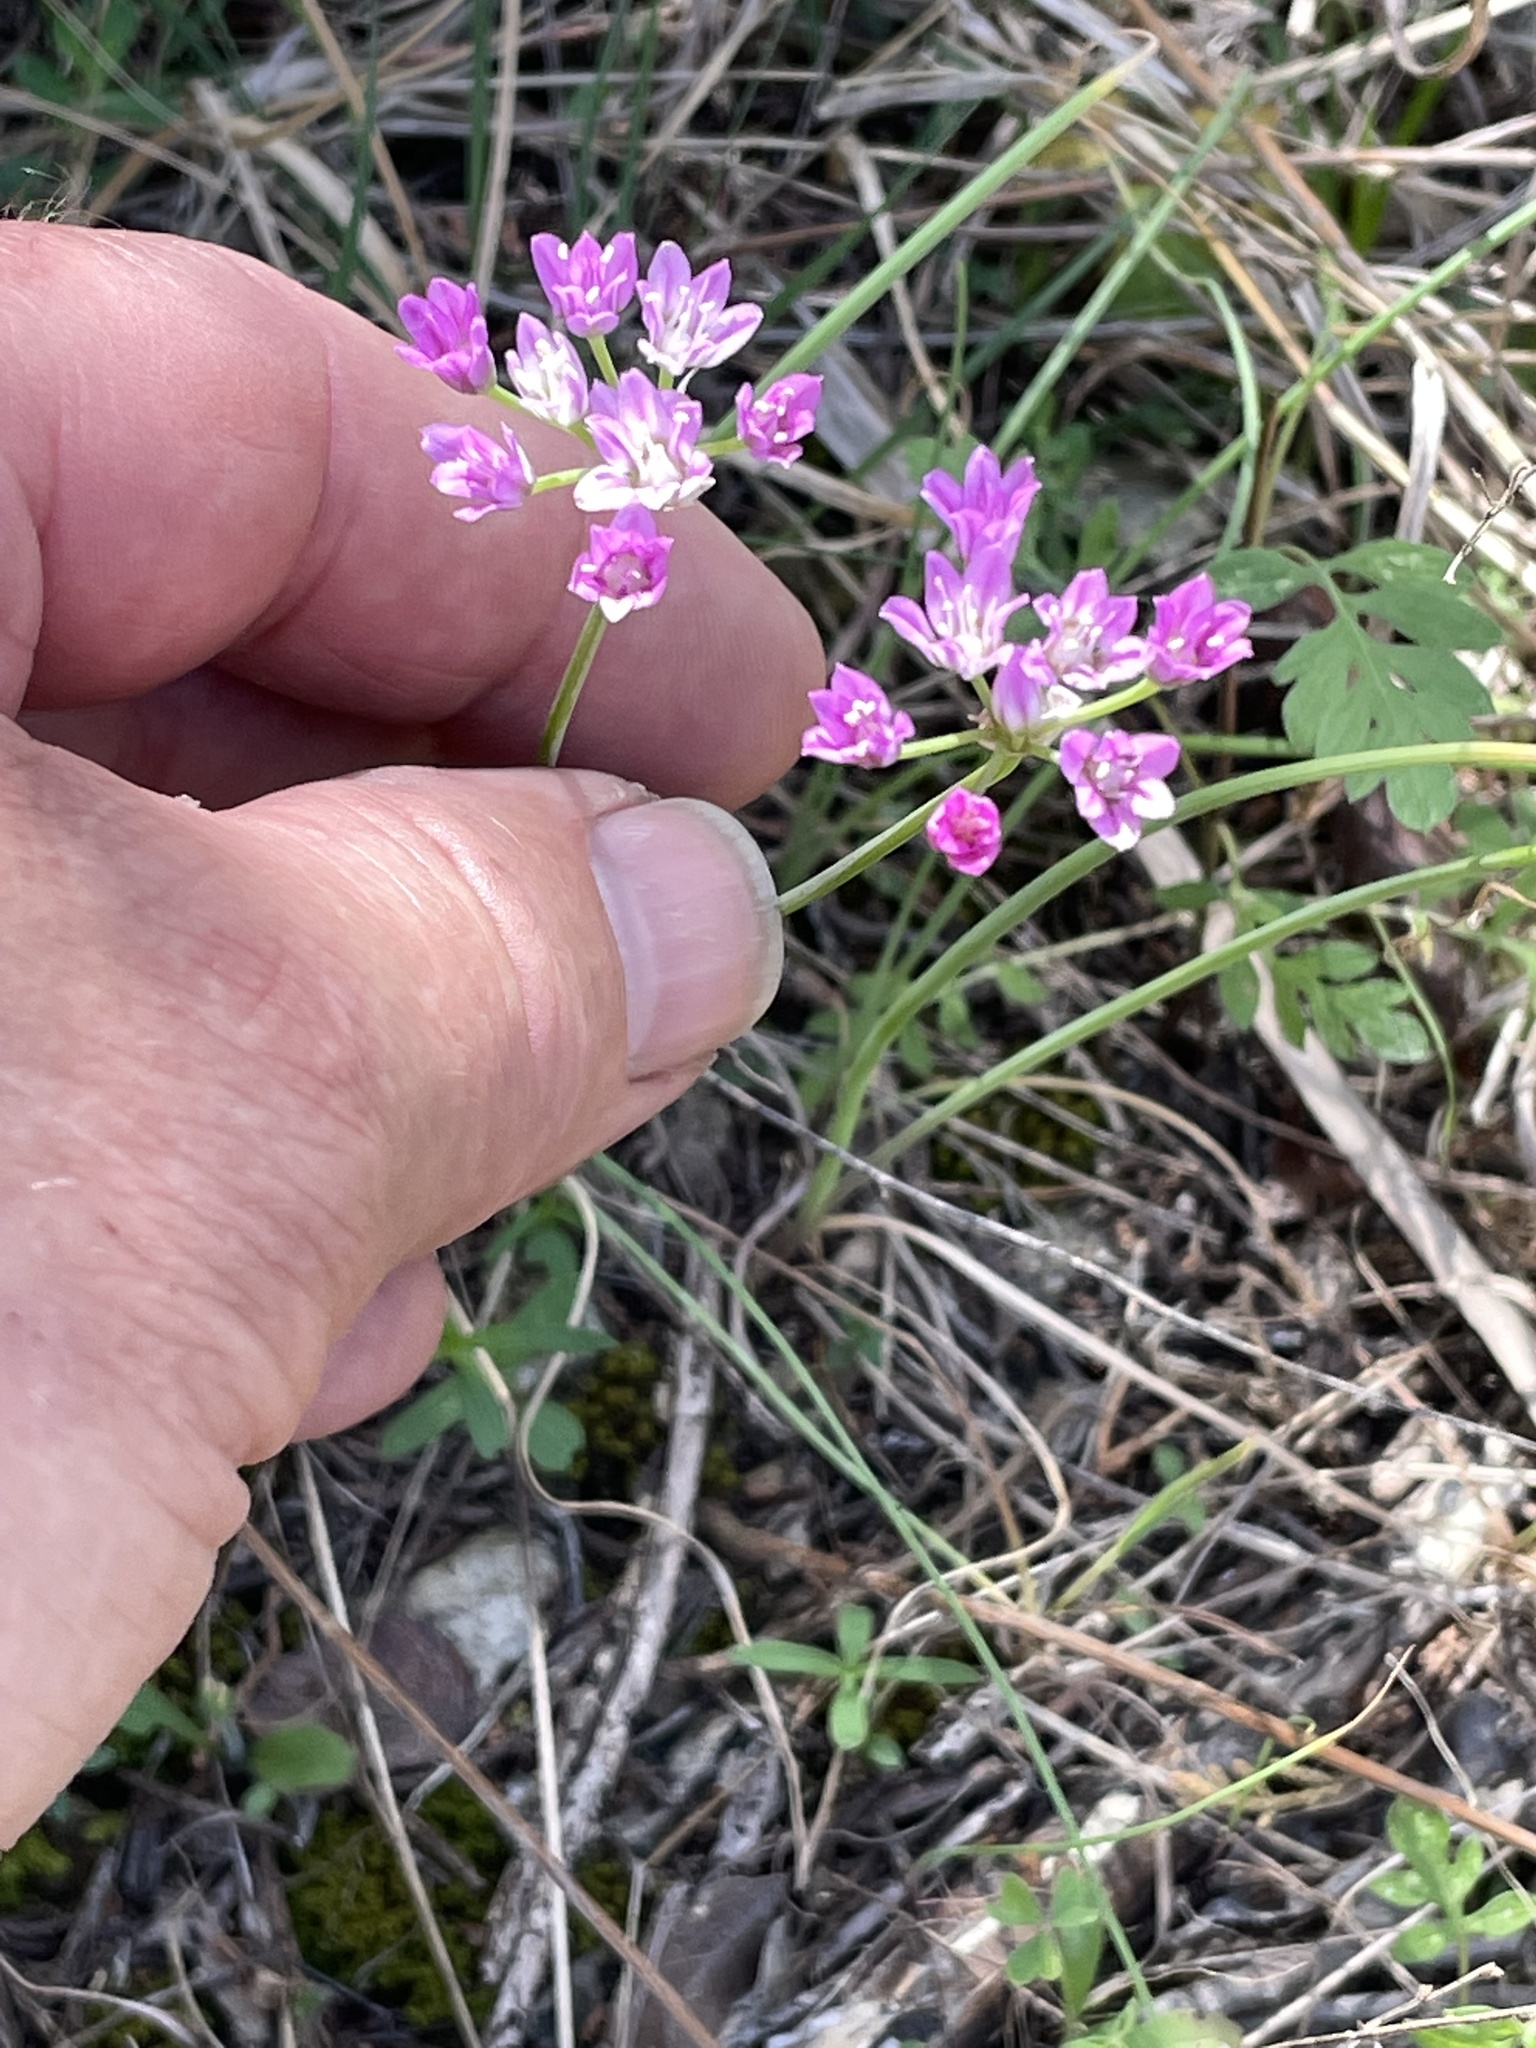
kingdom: Plantae
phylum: Tracheophyta
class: Liliopsida
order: Asparagales
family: Amaryllidaceae
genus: Allium
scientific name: Allium drummondii
